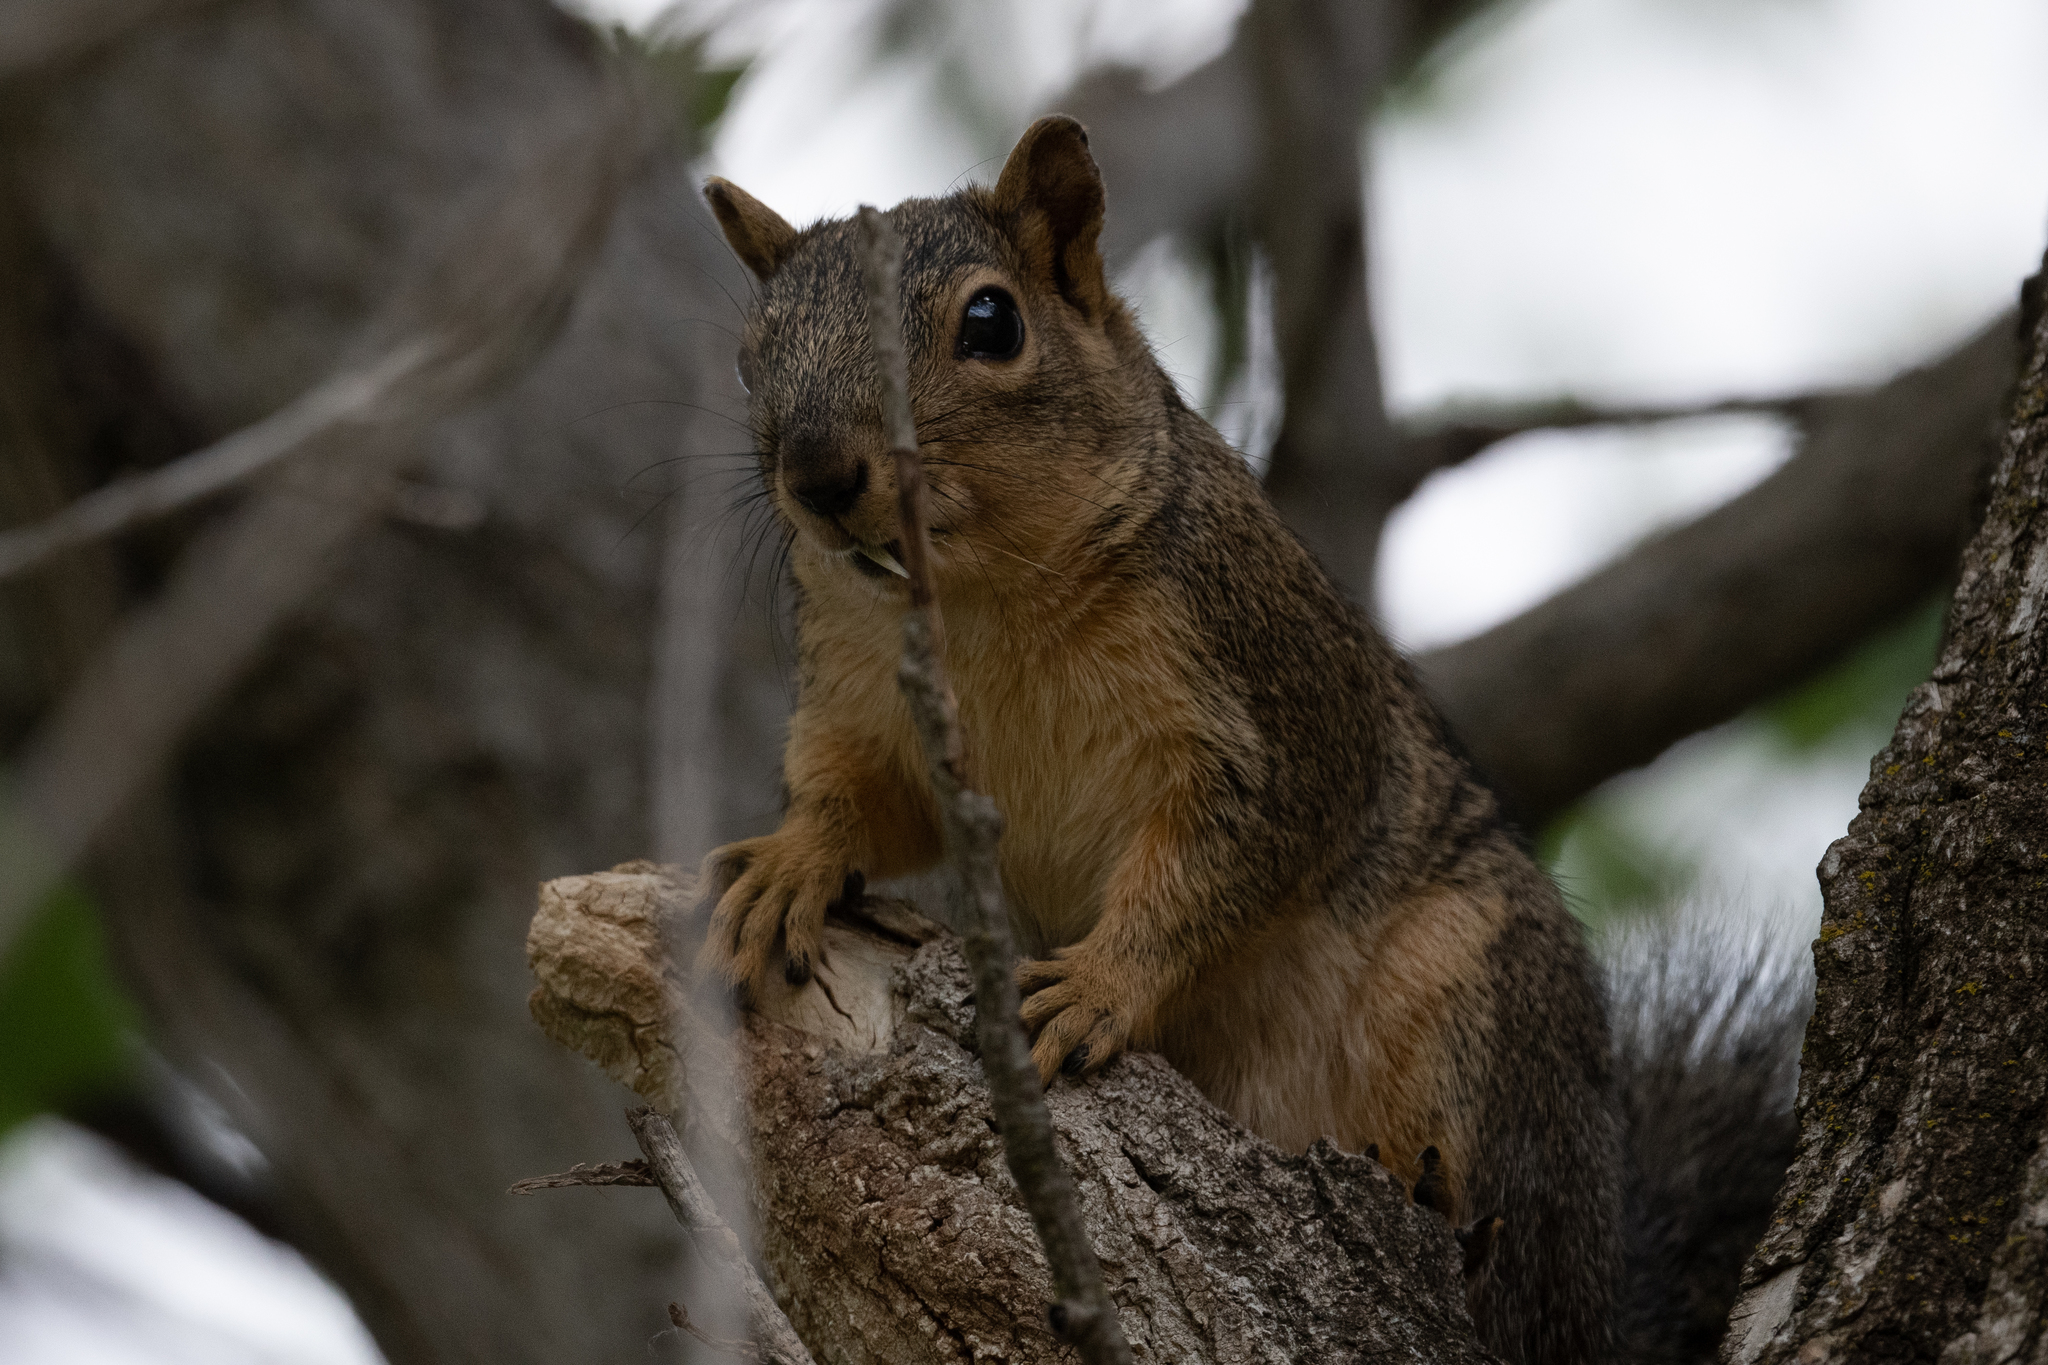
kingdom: Animalia
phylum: Chordata
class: Mammalia
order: Rodentia
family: Sciuridae
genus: Sciurus
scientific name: Sciurus niger
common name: Fox squirrel
